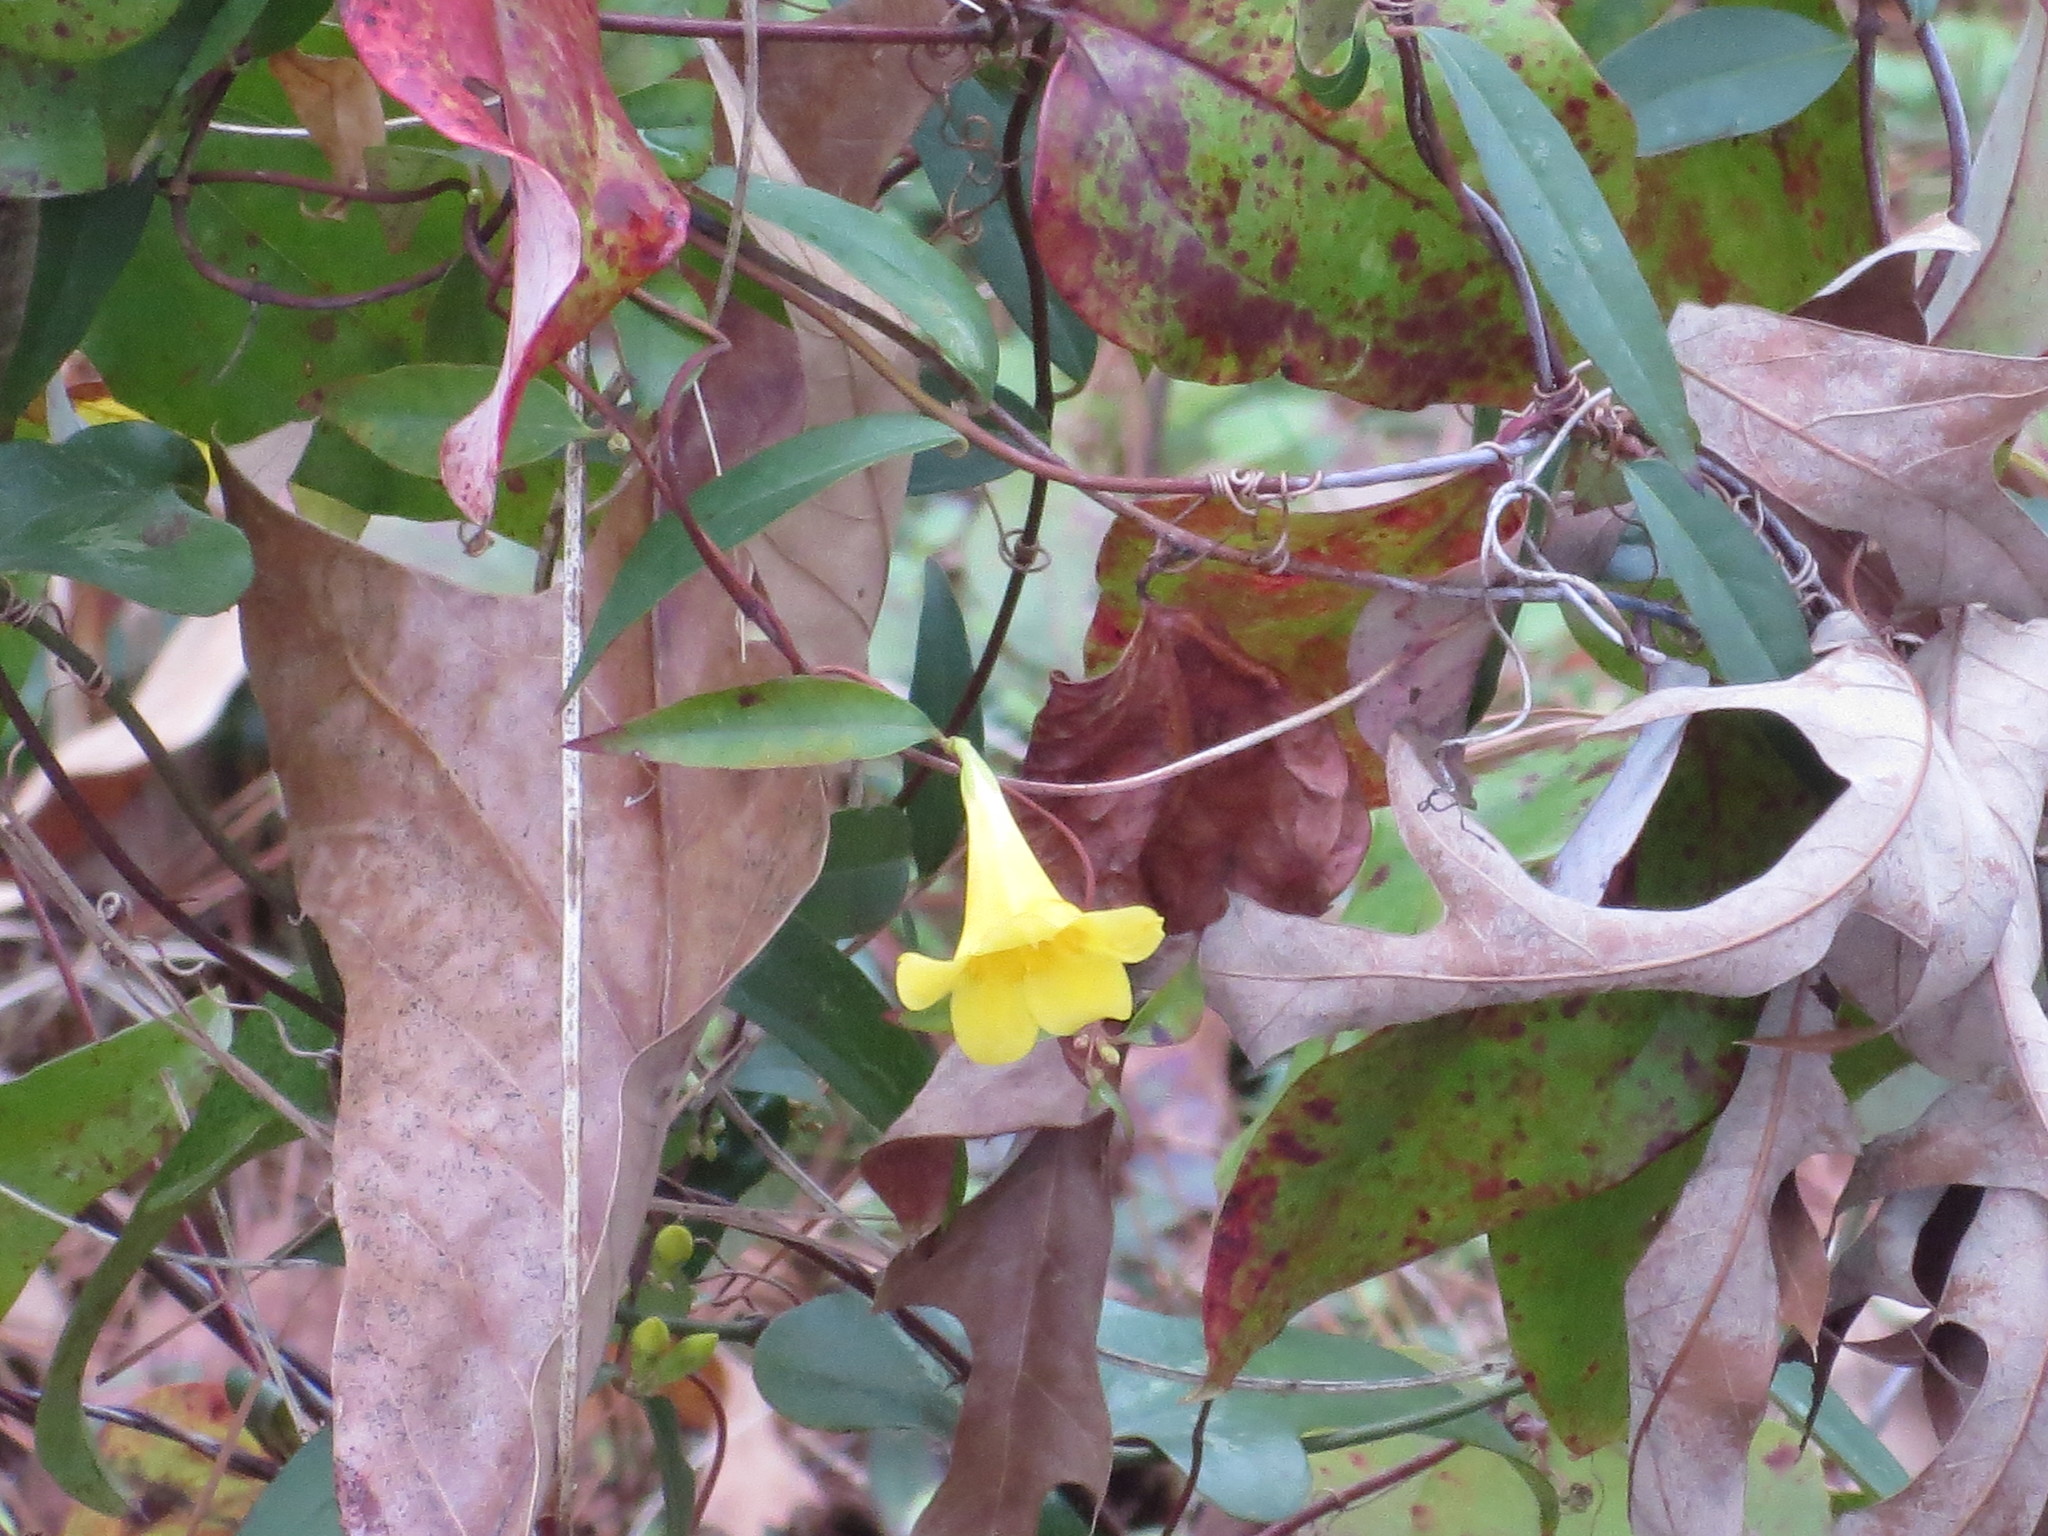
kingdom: Plantae
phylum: Tracheophyta
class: Magnoliopsida
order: Gentianales
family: Gelsemiaceae
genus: Gelsemium
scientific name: Gelsemium sempervirens
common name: Carolina-jasmine
